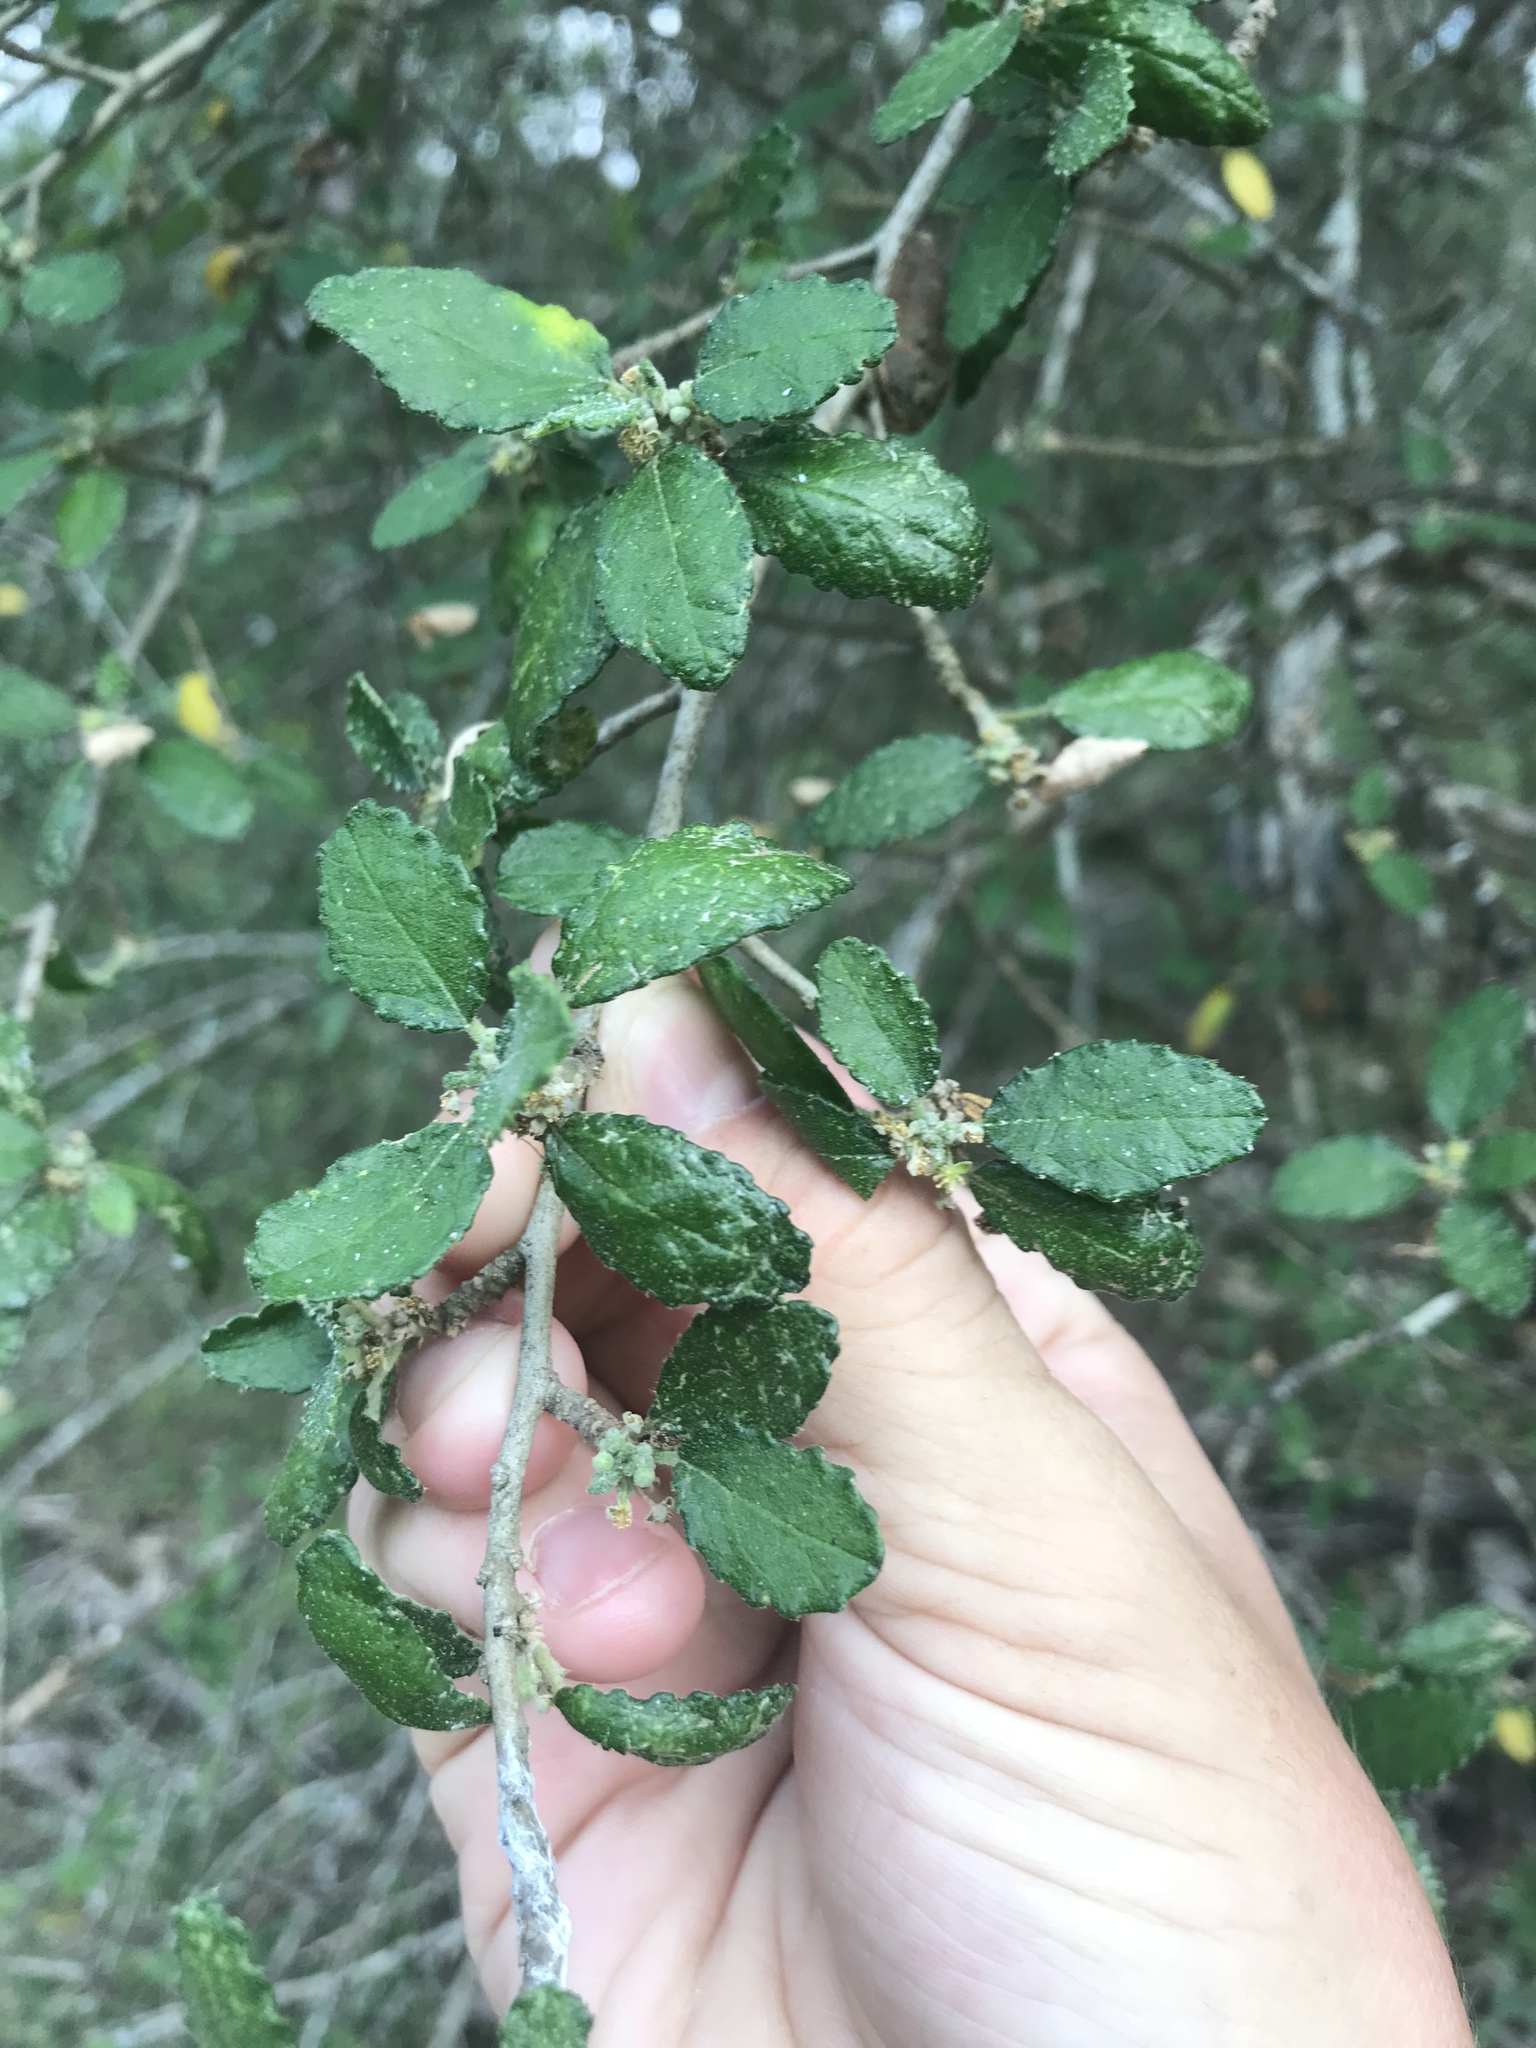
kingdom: Plantae
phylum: Tracheophyta
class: Magnoliopsida
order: Malpighiales
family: Euphorbiaceae
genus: Bernardia
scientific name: Bernardia myricifolia
